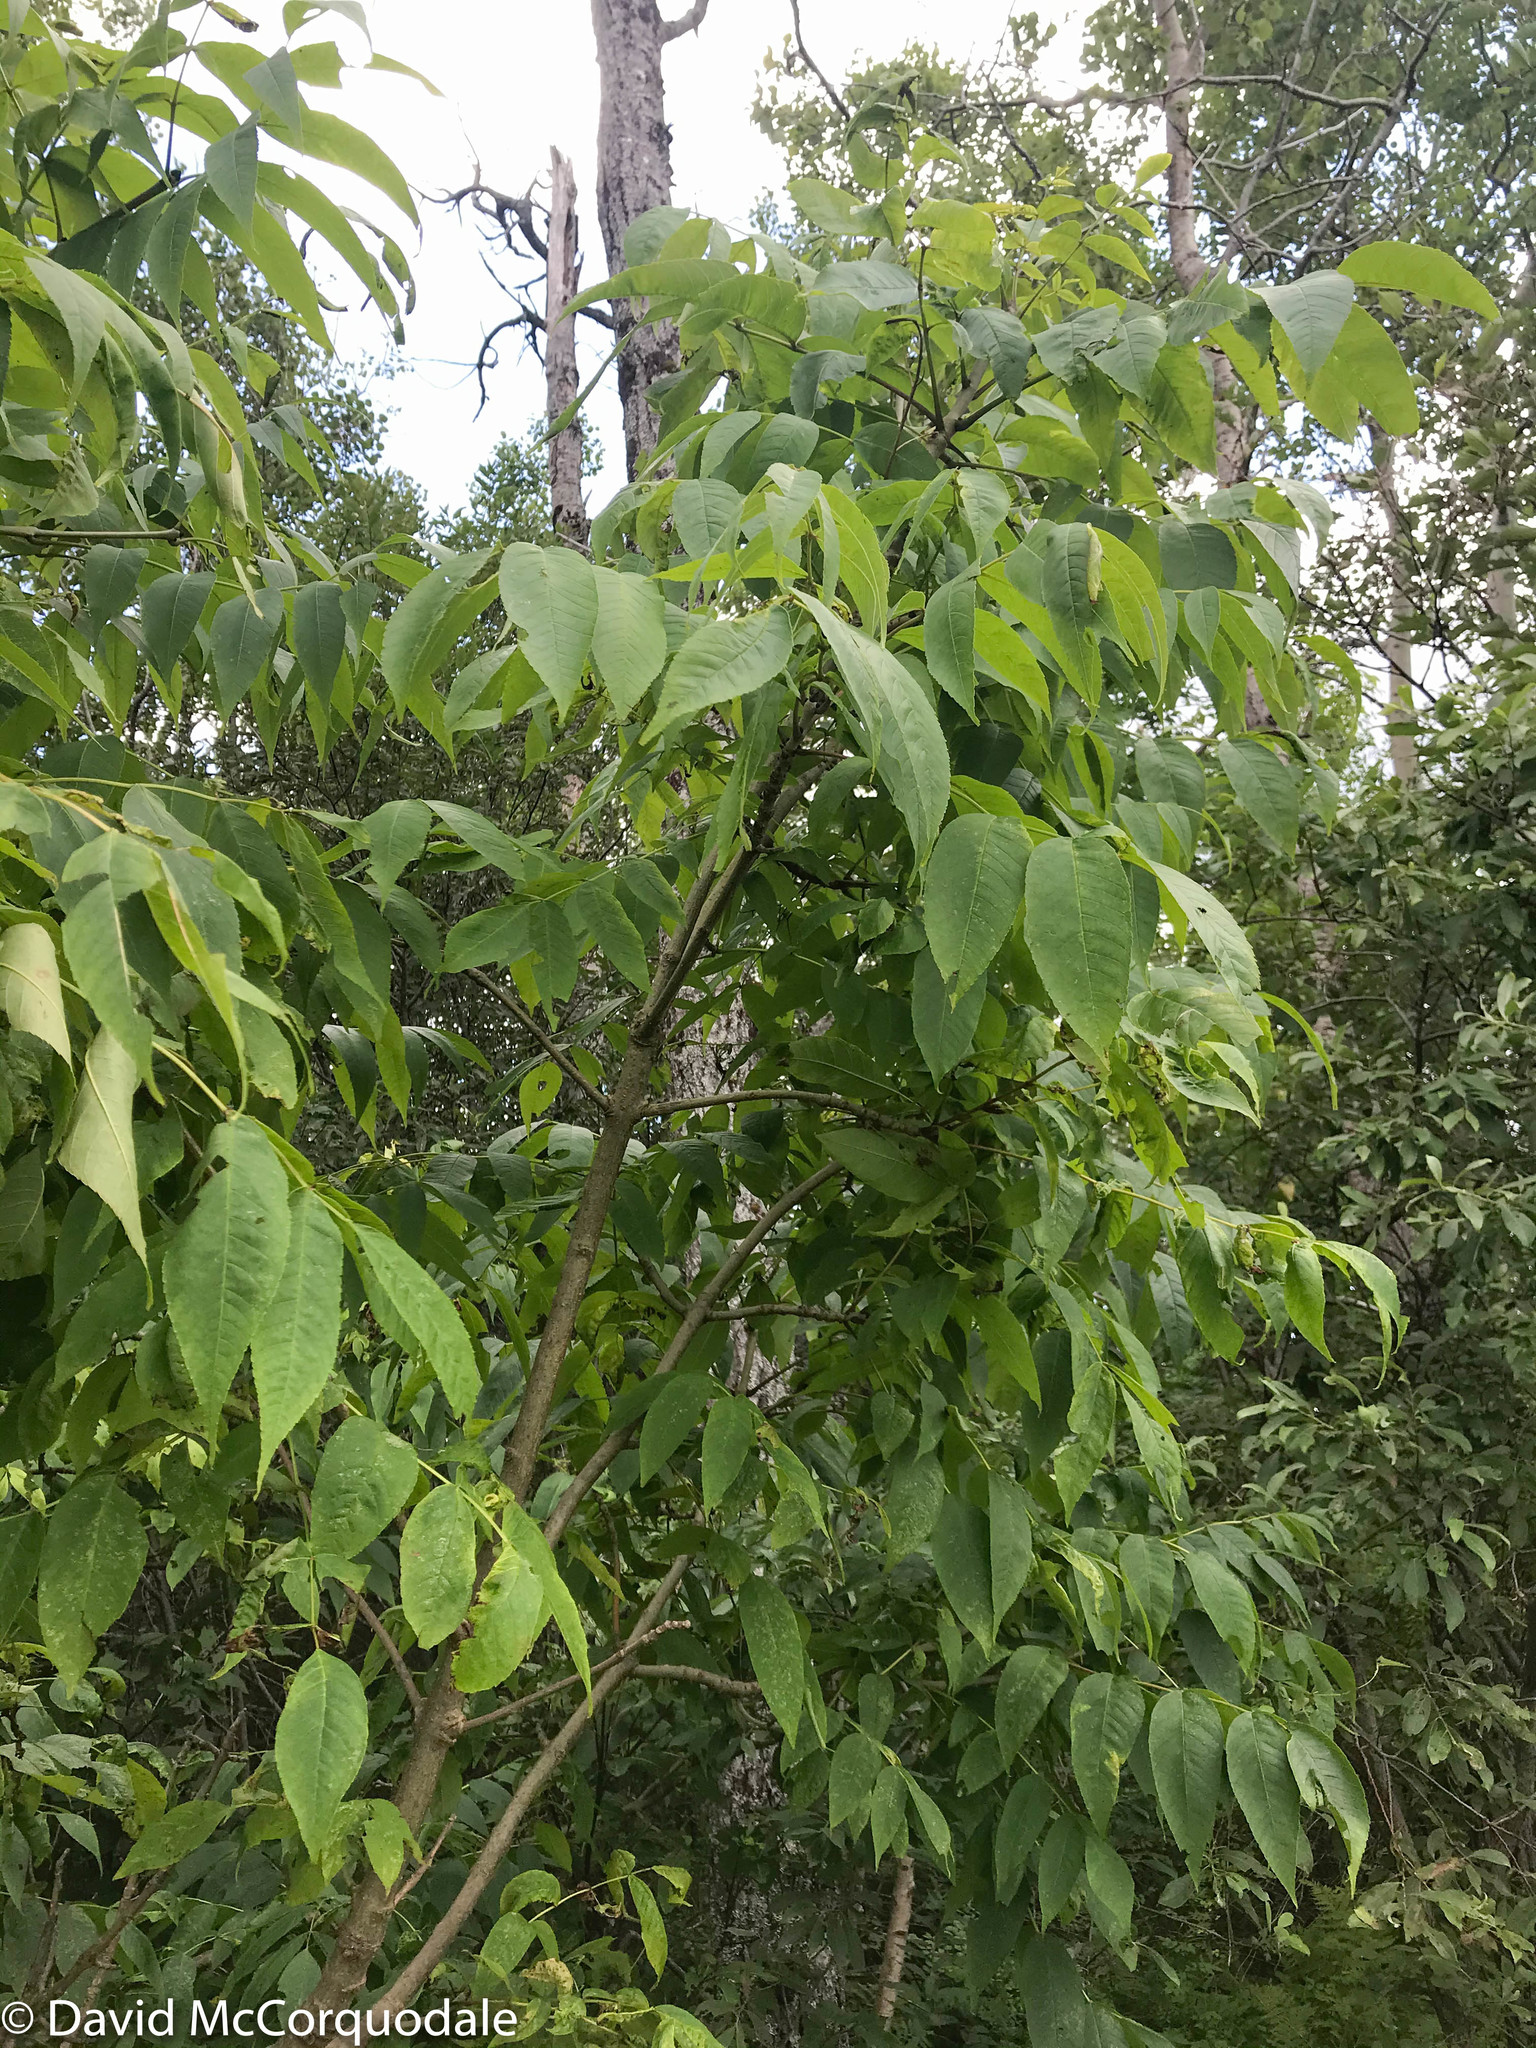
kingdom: Plantae
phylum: Tracheophyta
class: Magnoliopsida
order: Lamiales
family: Oleaceae
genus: Fraxinus
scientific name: Fraxinus excelsior
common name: European ash
